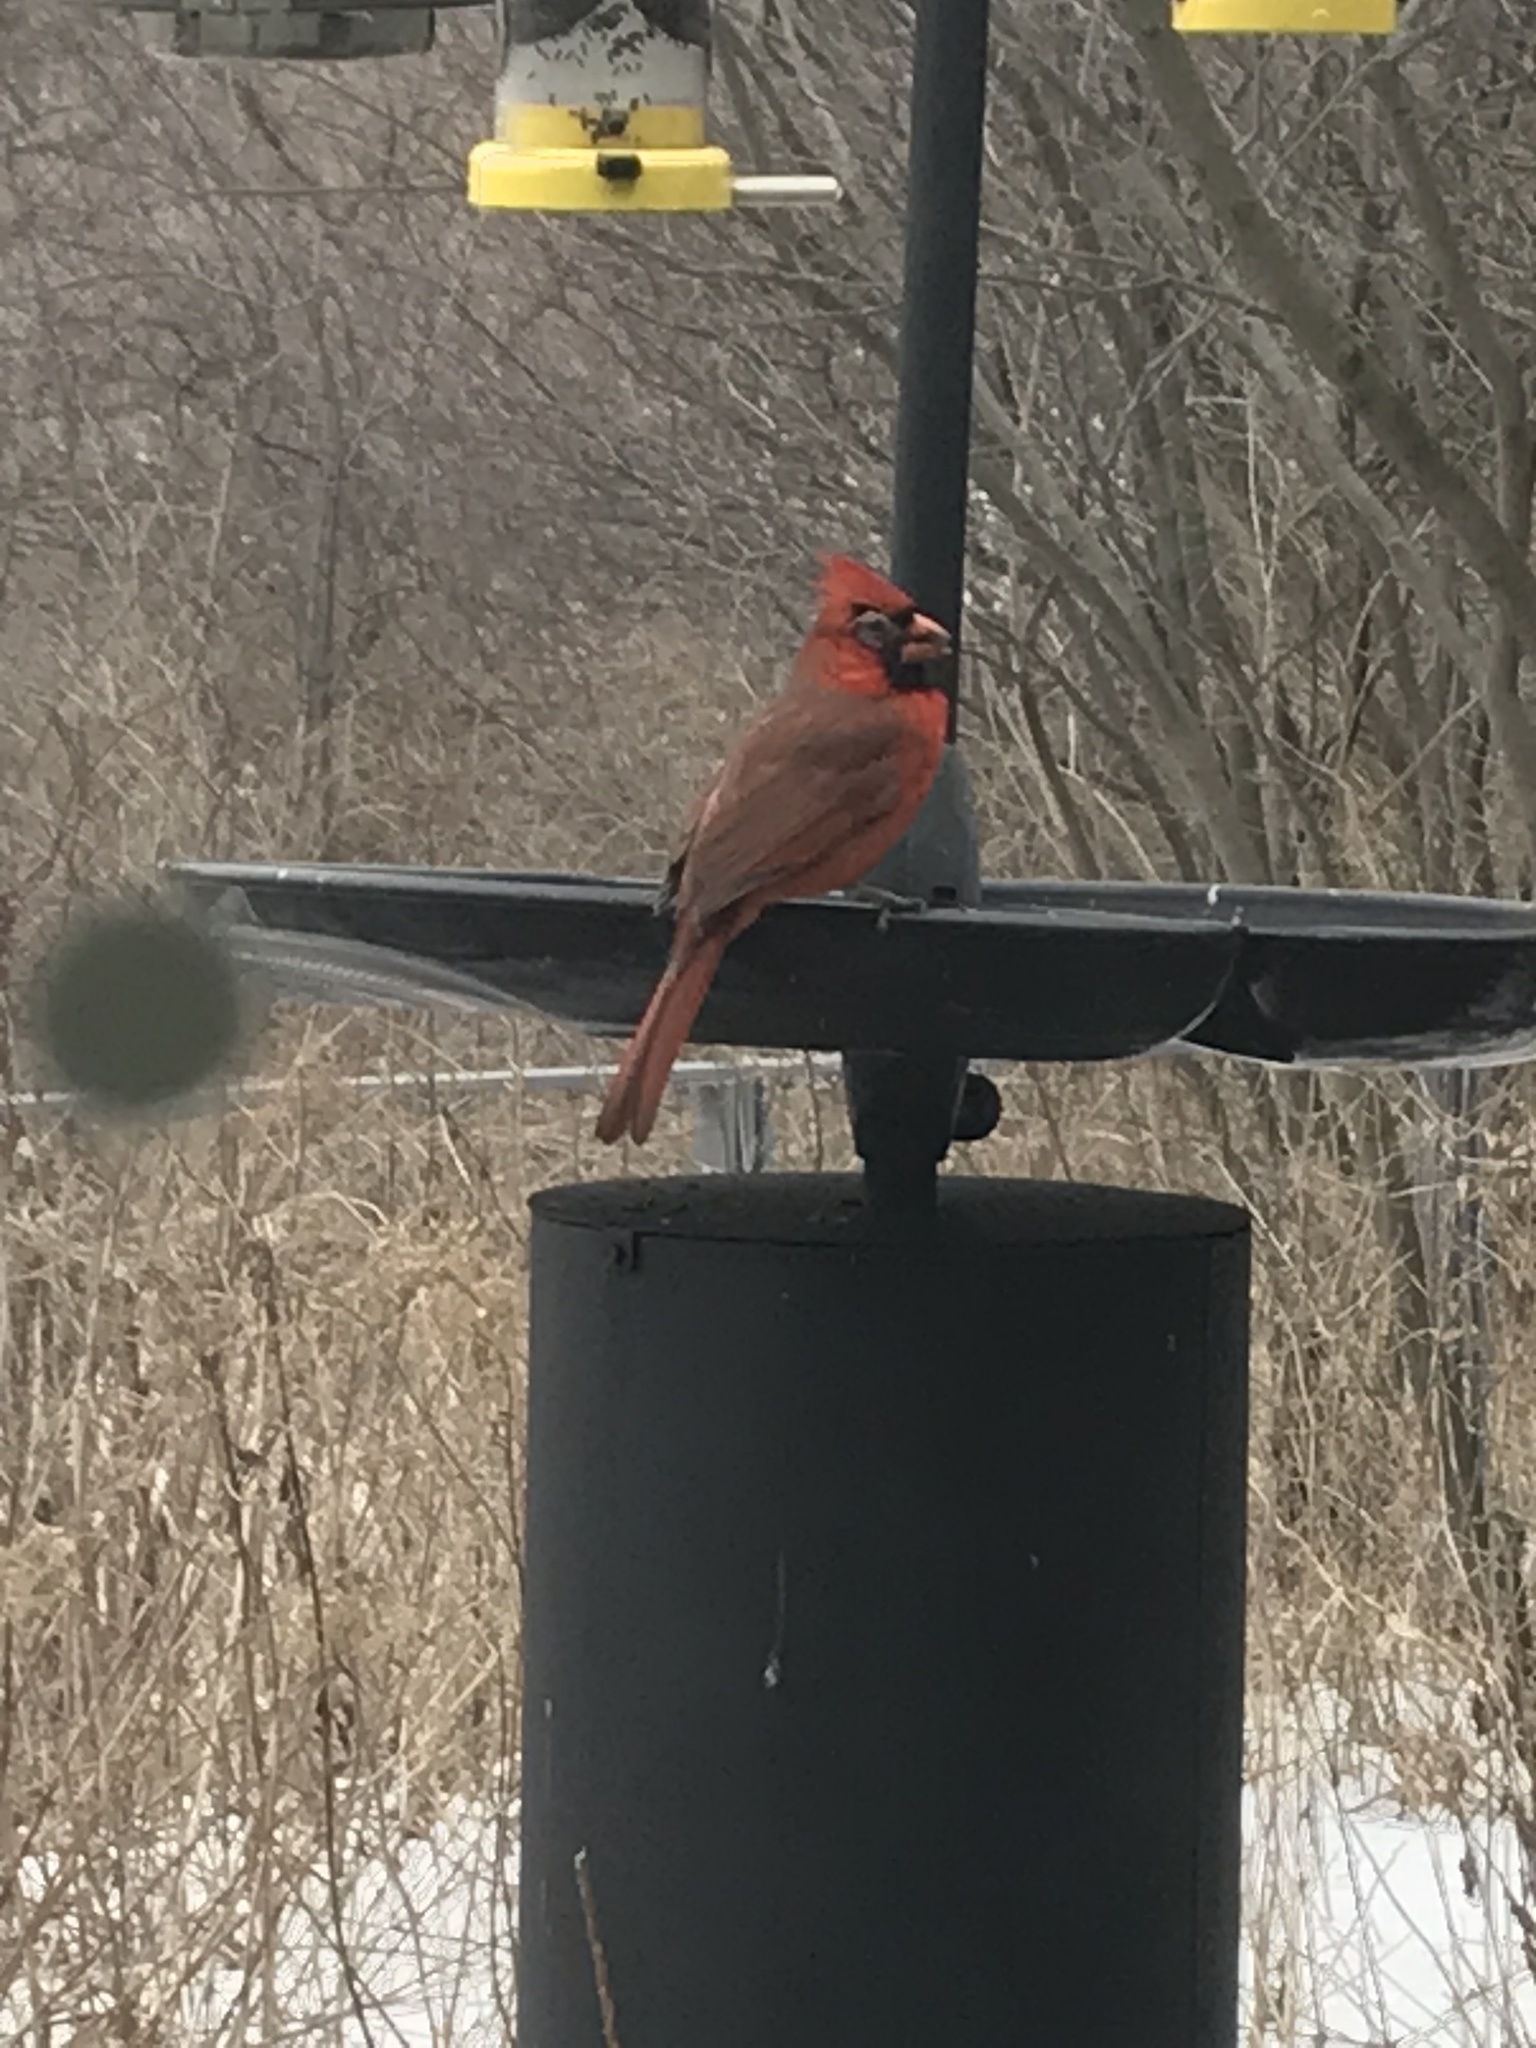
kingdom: Animalia
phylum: Chordata
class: Aves
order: Passeriformes
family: Cardinalidae
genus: Cardinalis
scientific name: Cardinalis cardinalis
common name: Northern cardinal
